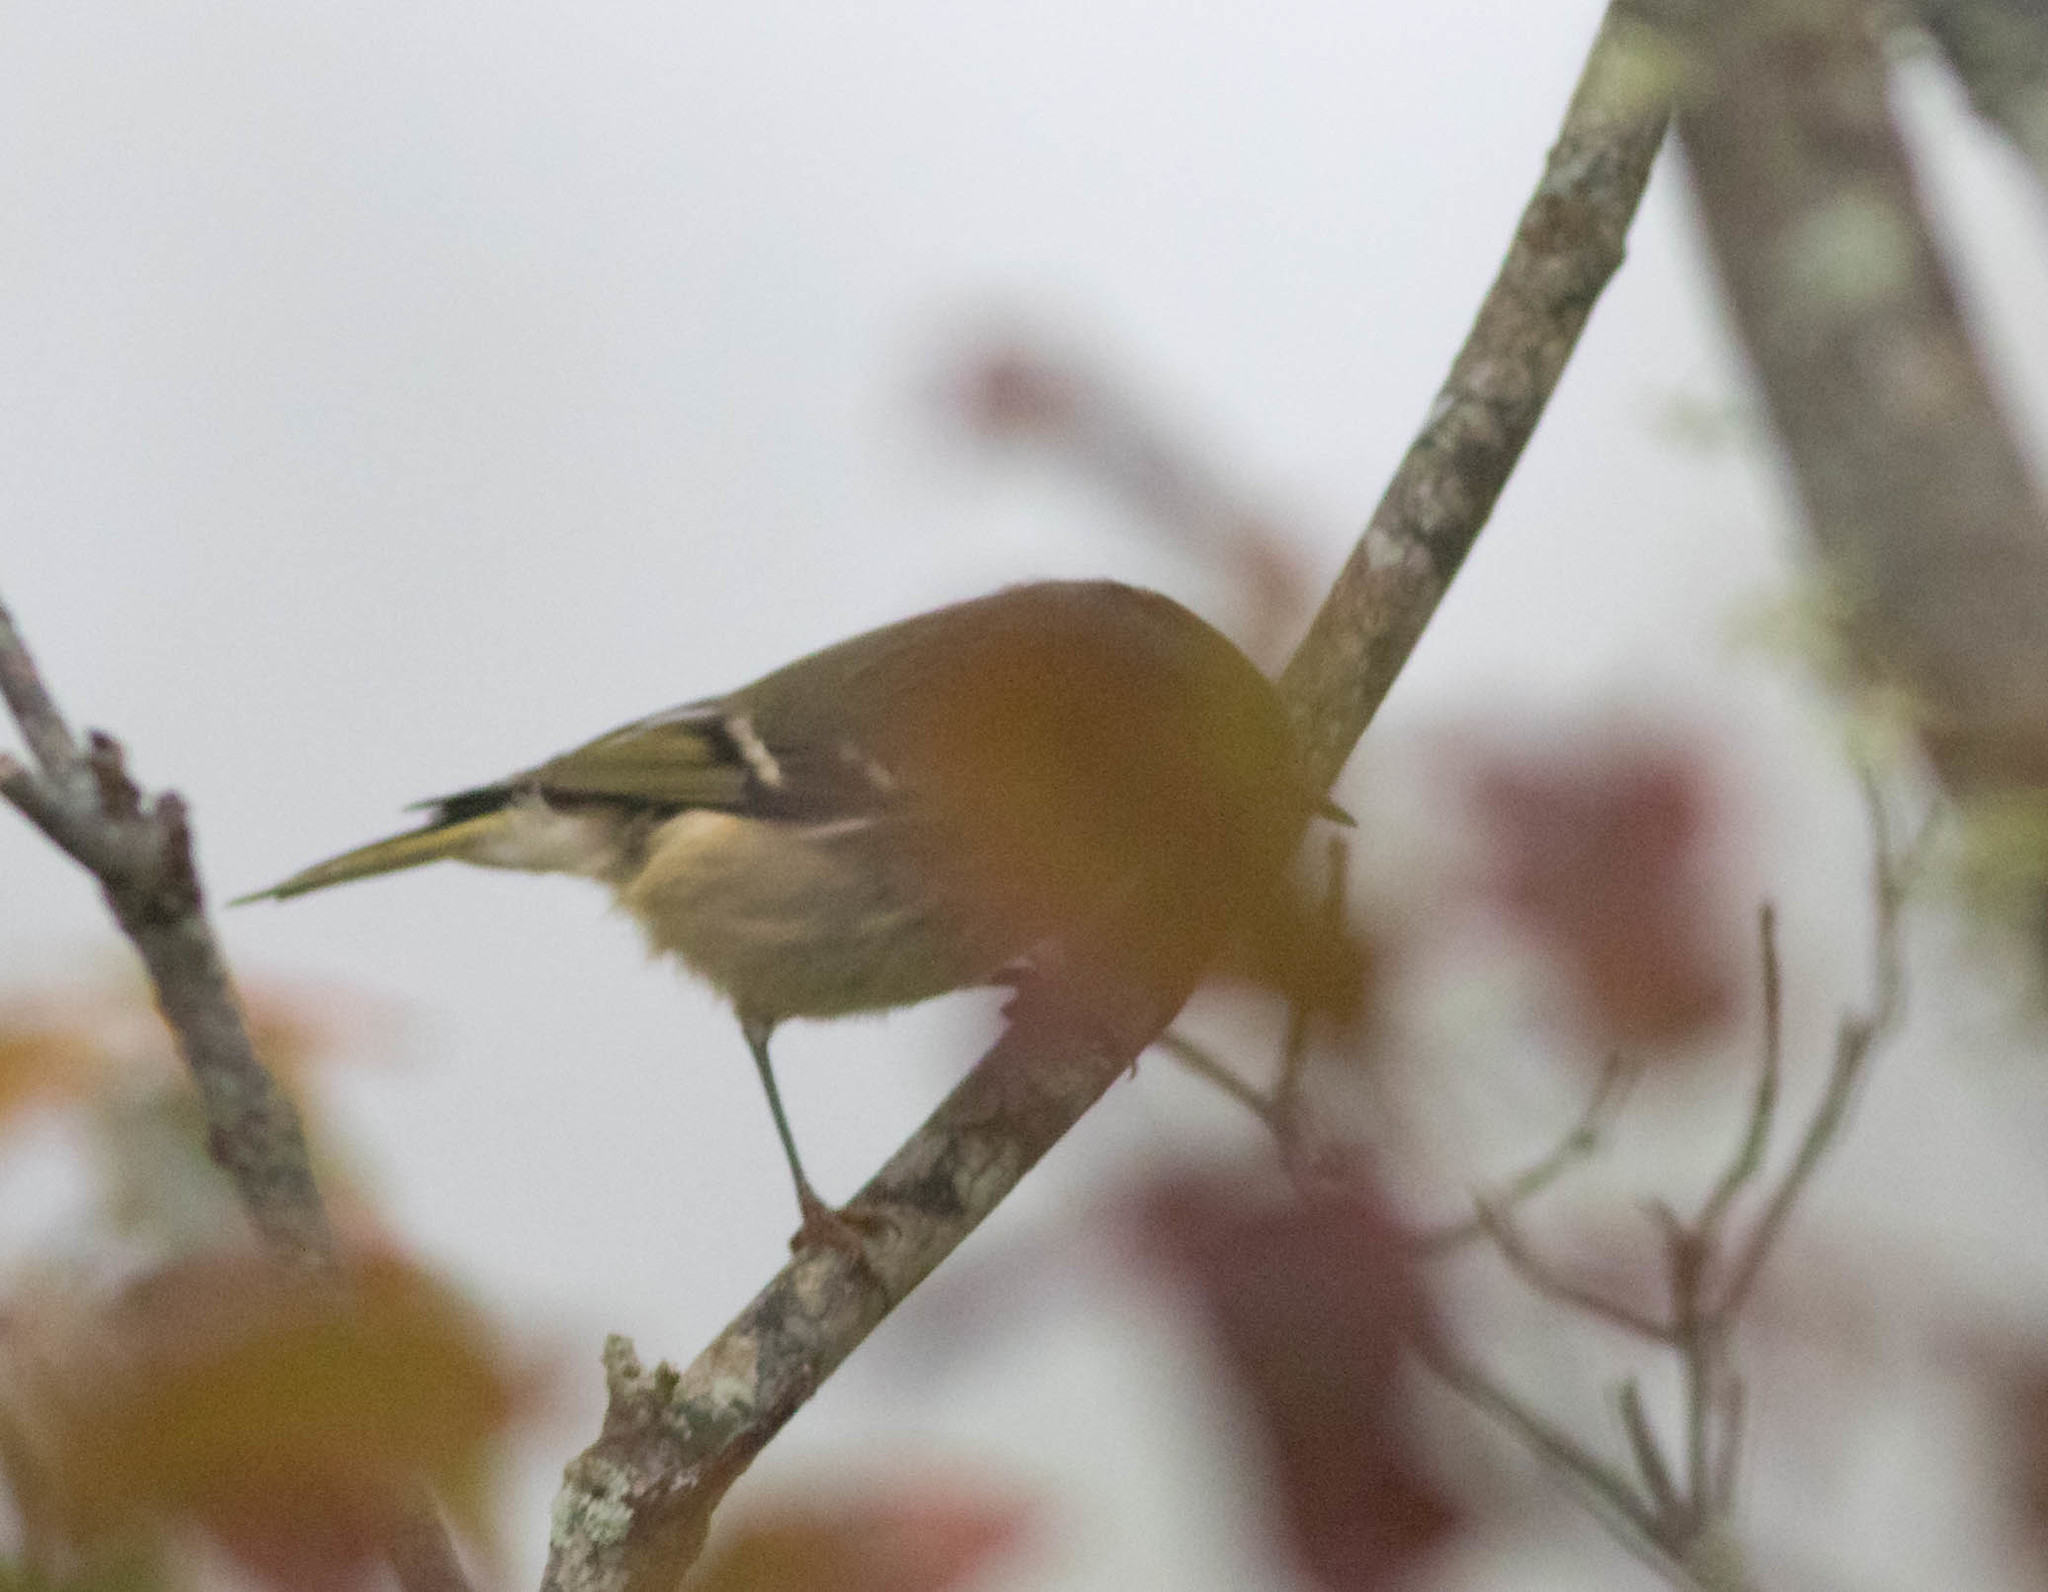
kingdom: Animalia
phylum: Chordata
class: Aves
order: Passeriformes
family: Regulidae
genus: Regulus
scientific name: Regulus calendula
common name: Ruby-crowned kinglet
